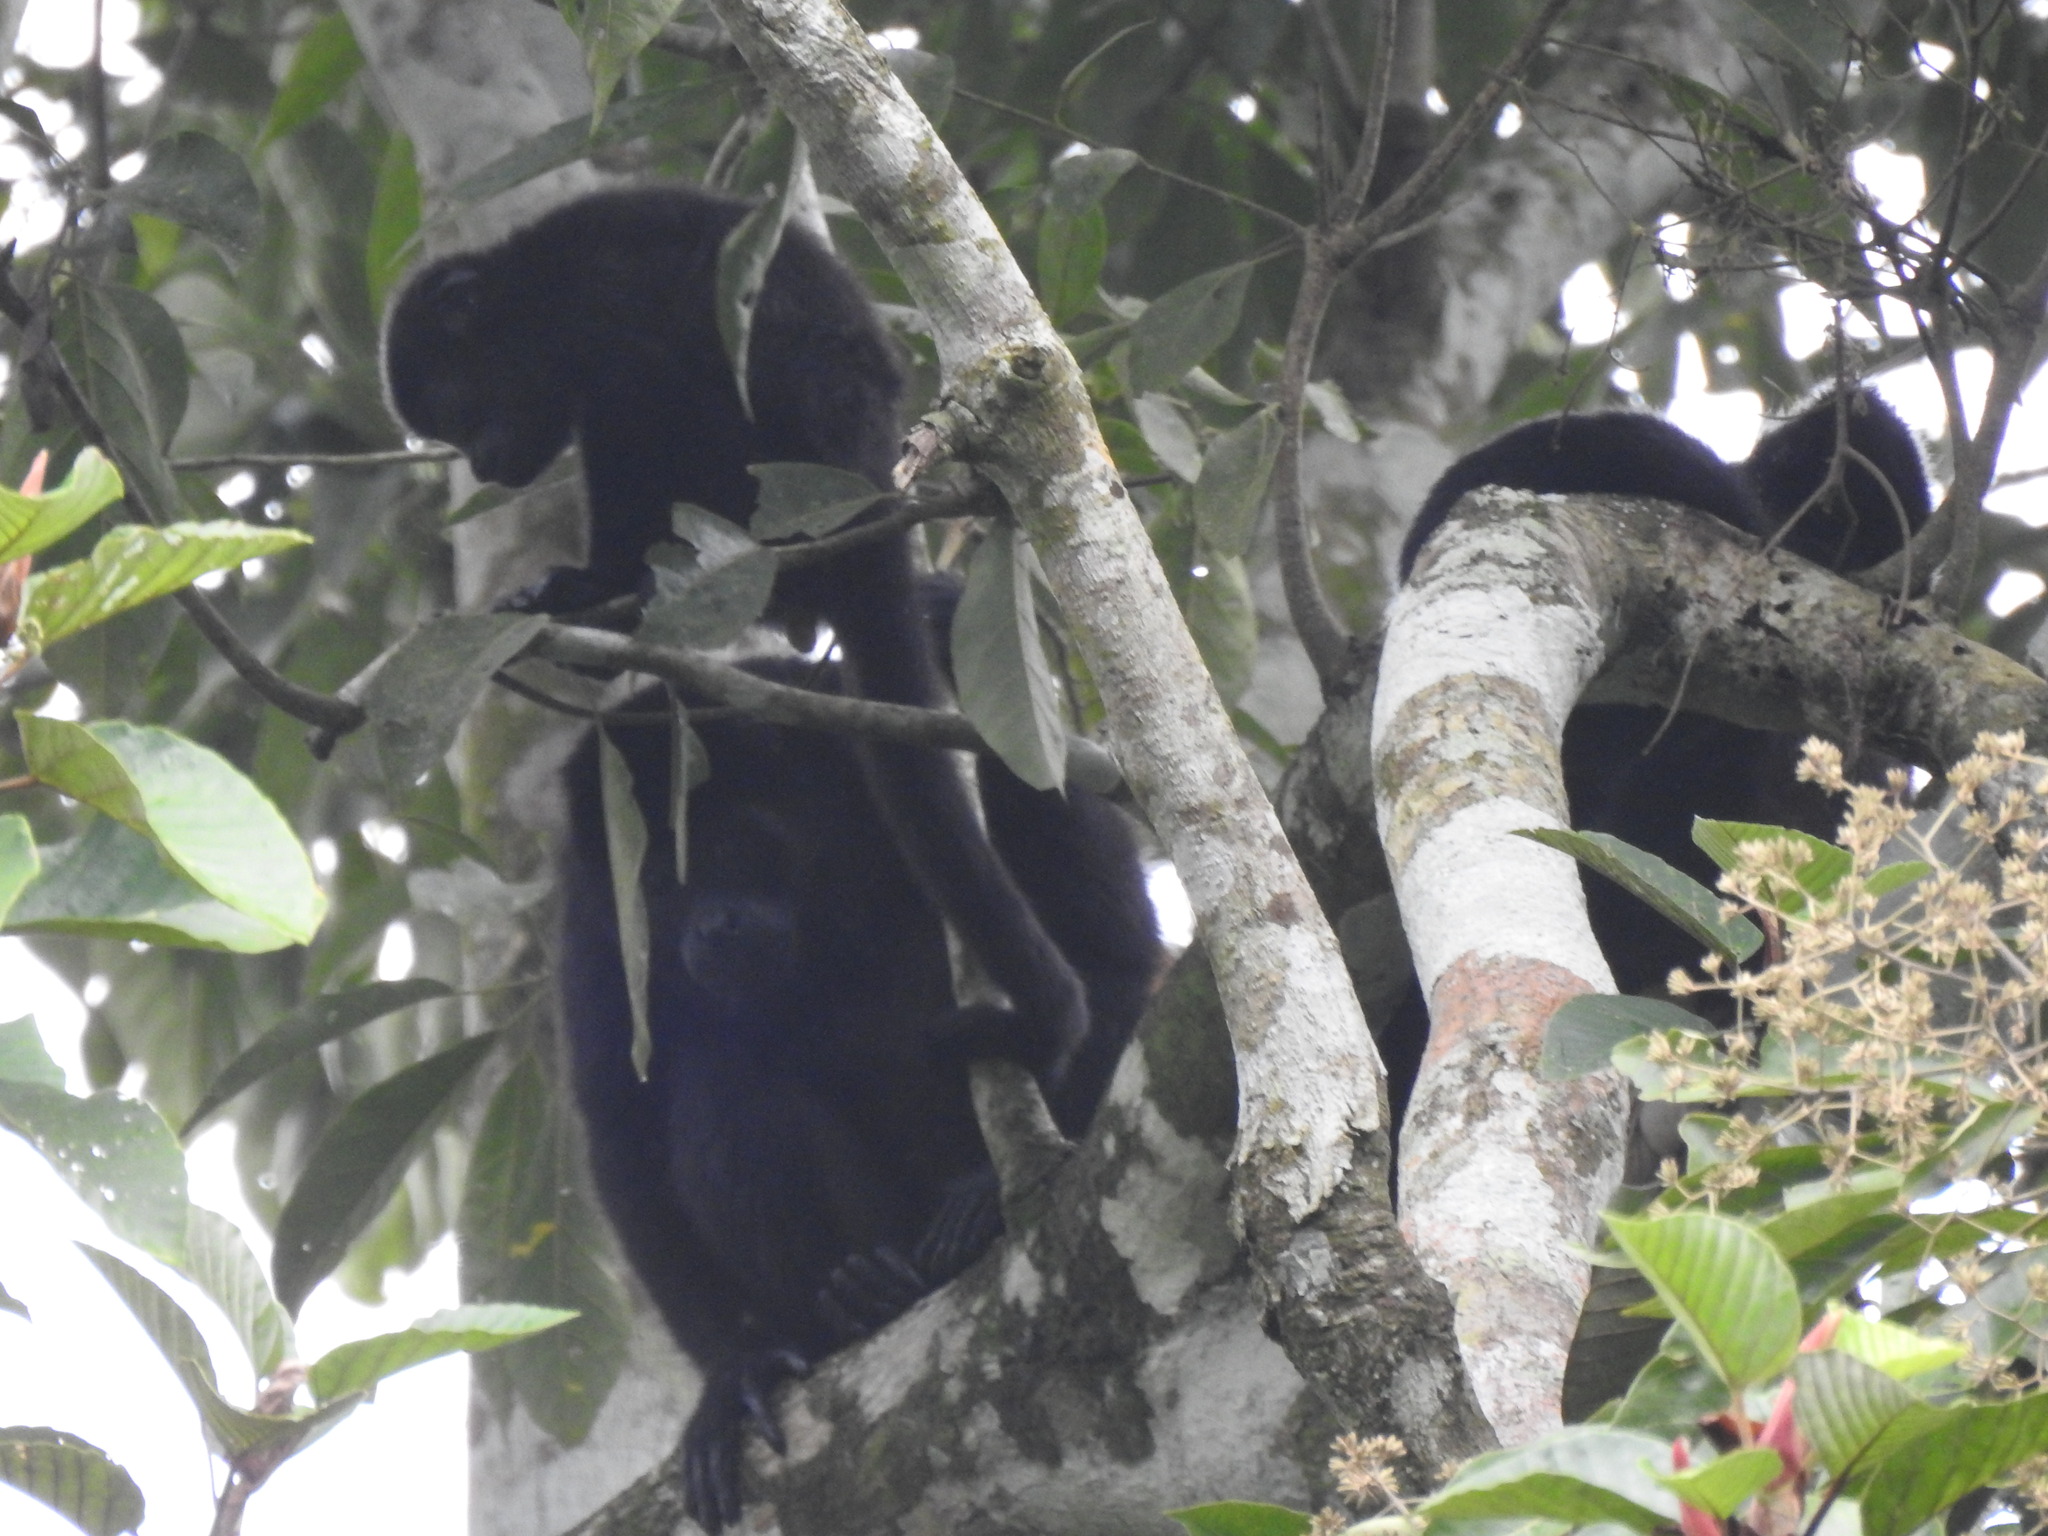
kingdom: Animalia
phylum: Chordata
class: Mammalia
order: Primates
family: Atelidae
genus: Alouatta
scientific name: Alouatta palliata
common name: Mantled howler
